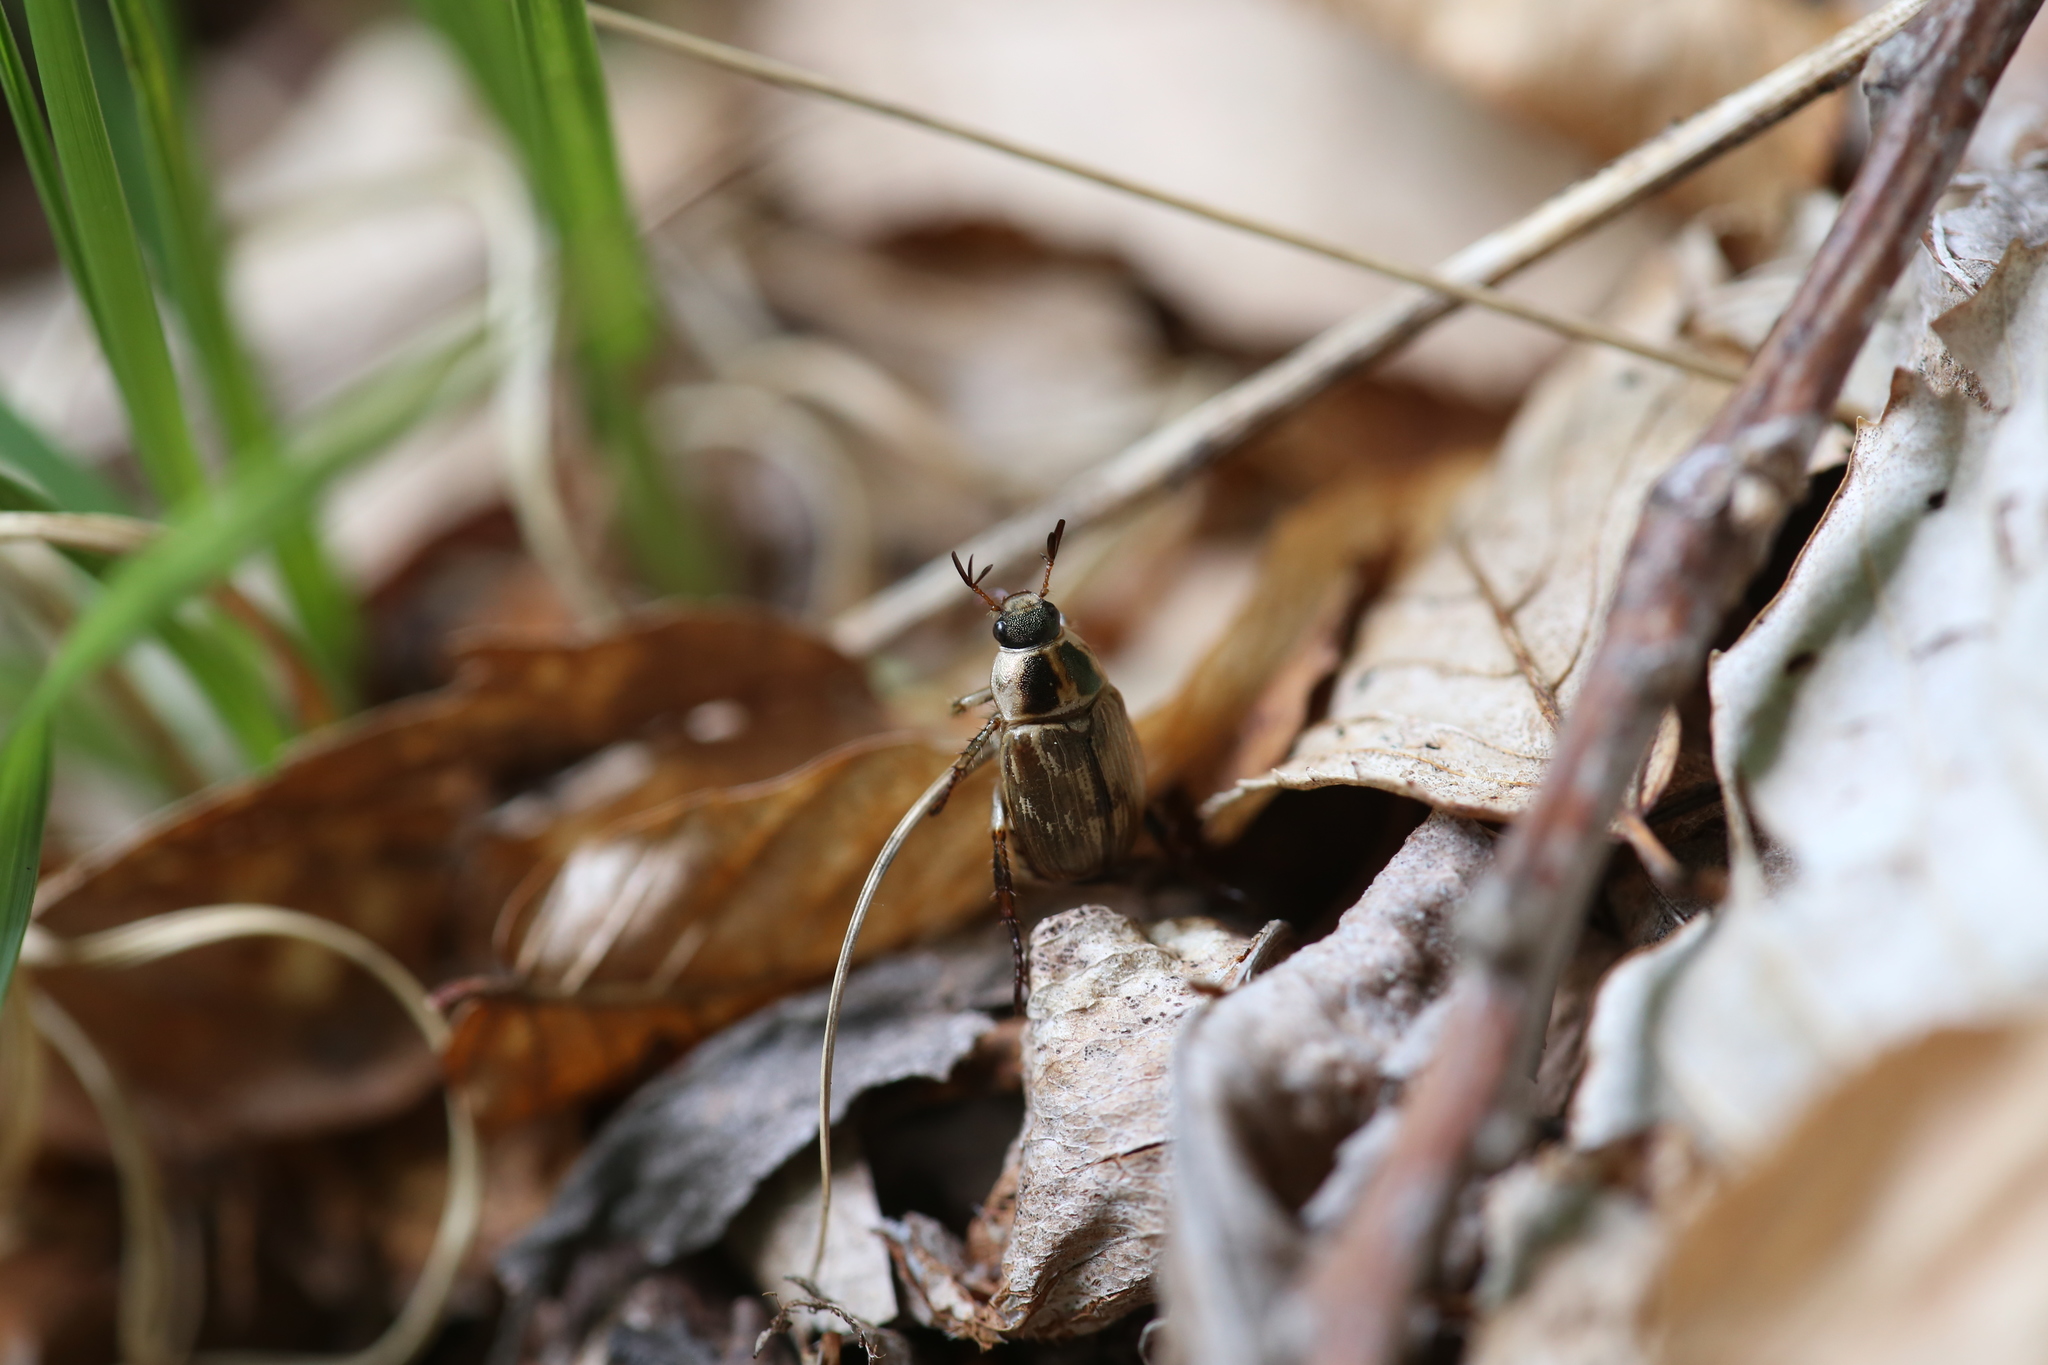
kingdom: Animalia
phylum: Arthropoda
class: Insecta
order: Coleoptera
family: Scarabaeidae
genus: Exomala
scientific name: Exomala orientalis
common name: Oriental beetle
